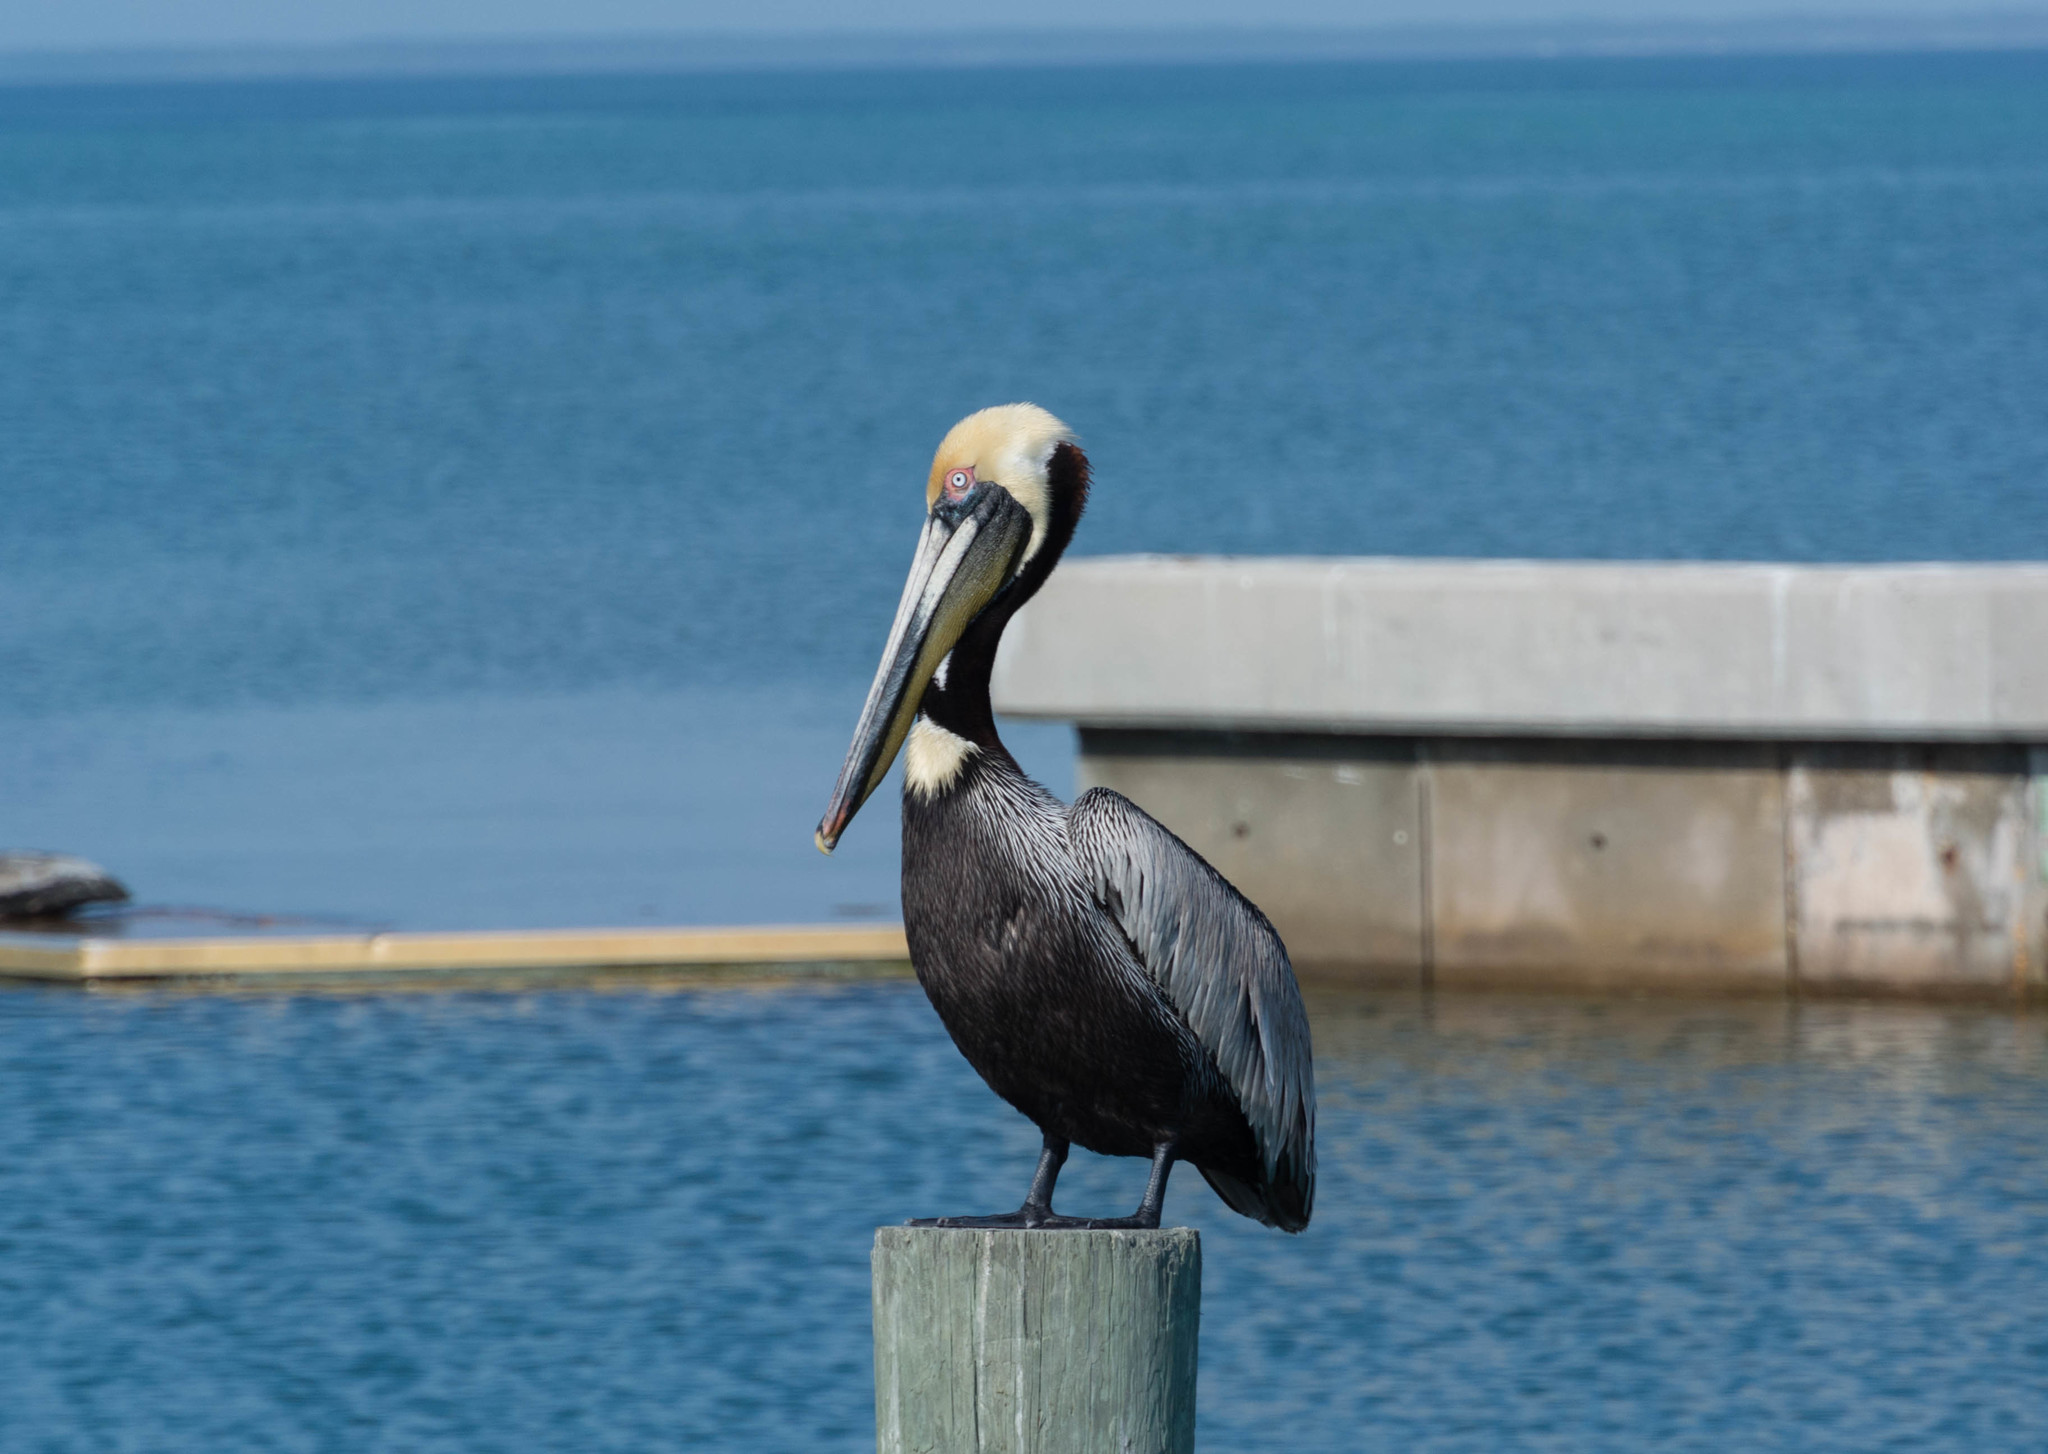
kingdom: Animalia
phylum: Chordata
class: Aves
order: Pelecaniformes
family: Pelecanidae
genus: Pelecanus
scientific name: Pelecanus occidentalis
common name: Brown pelican
